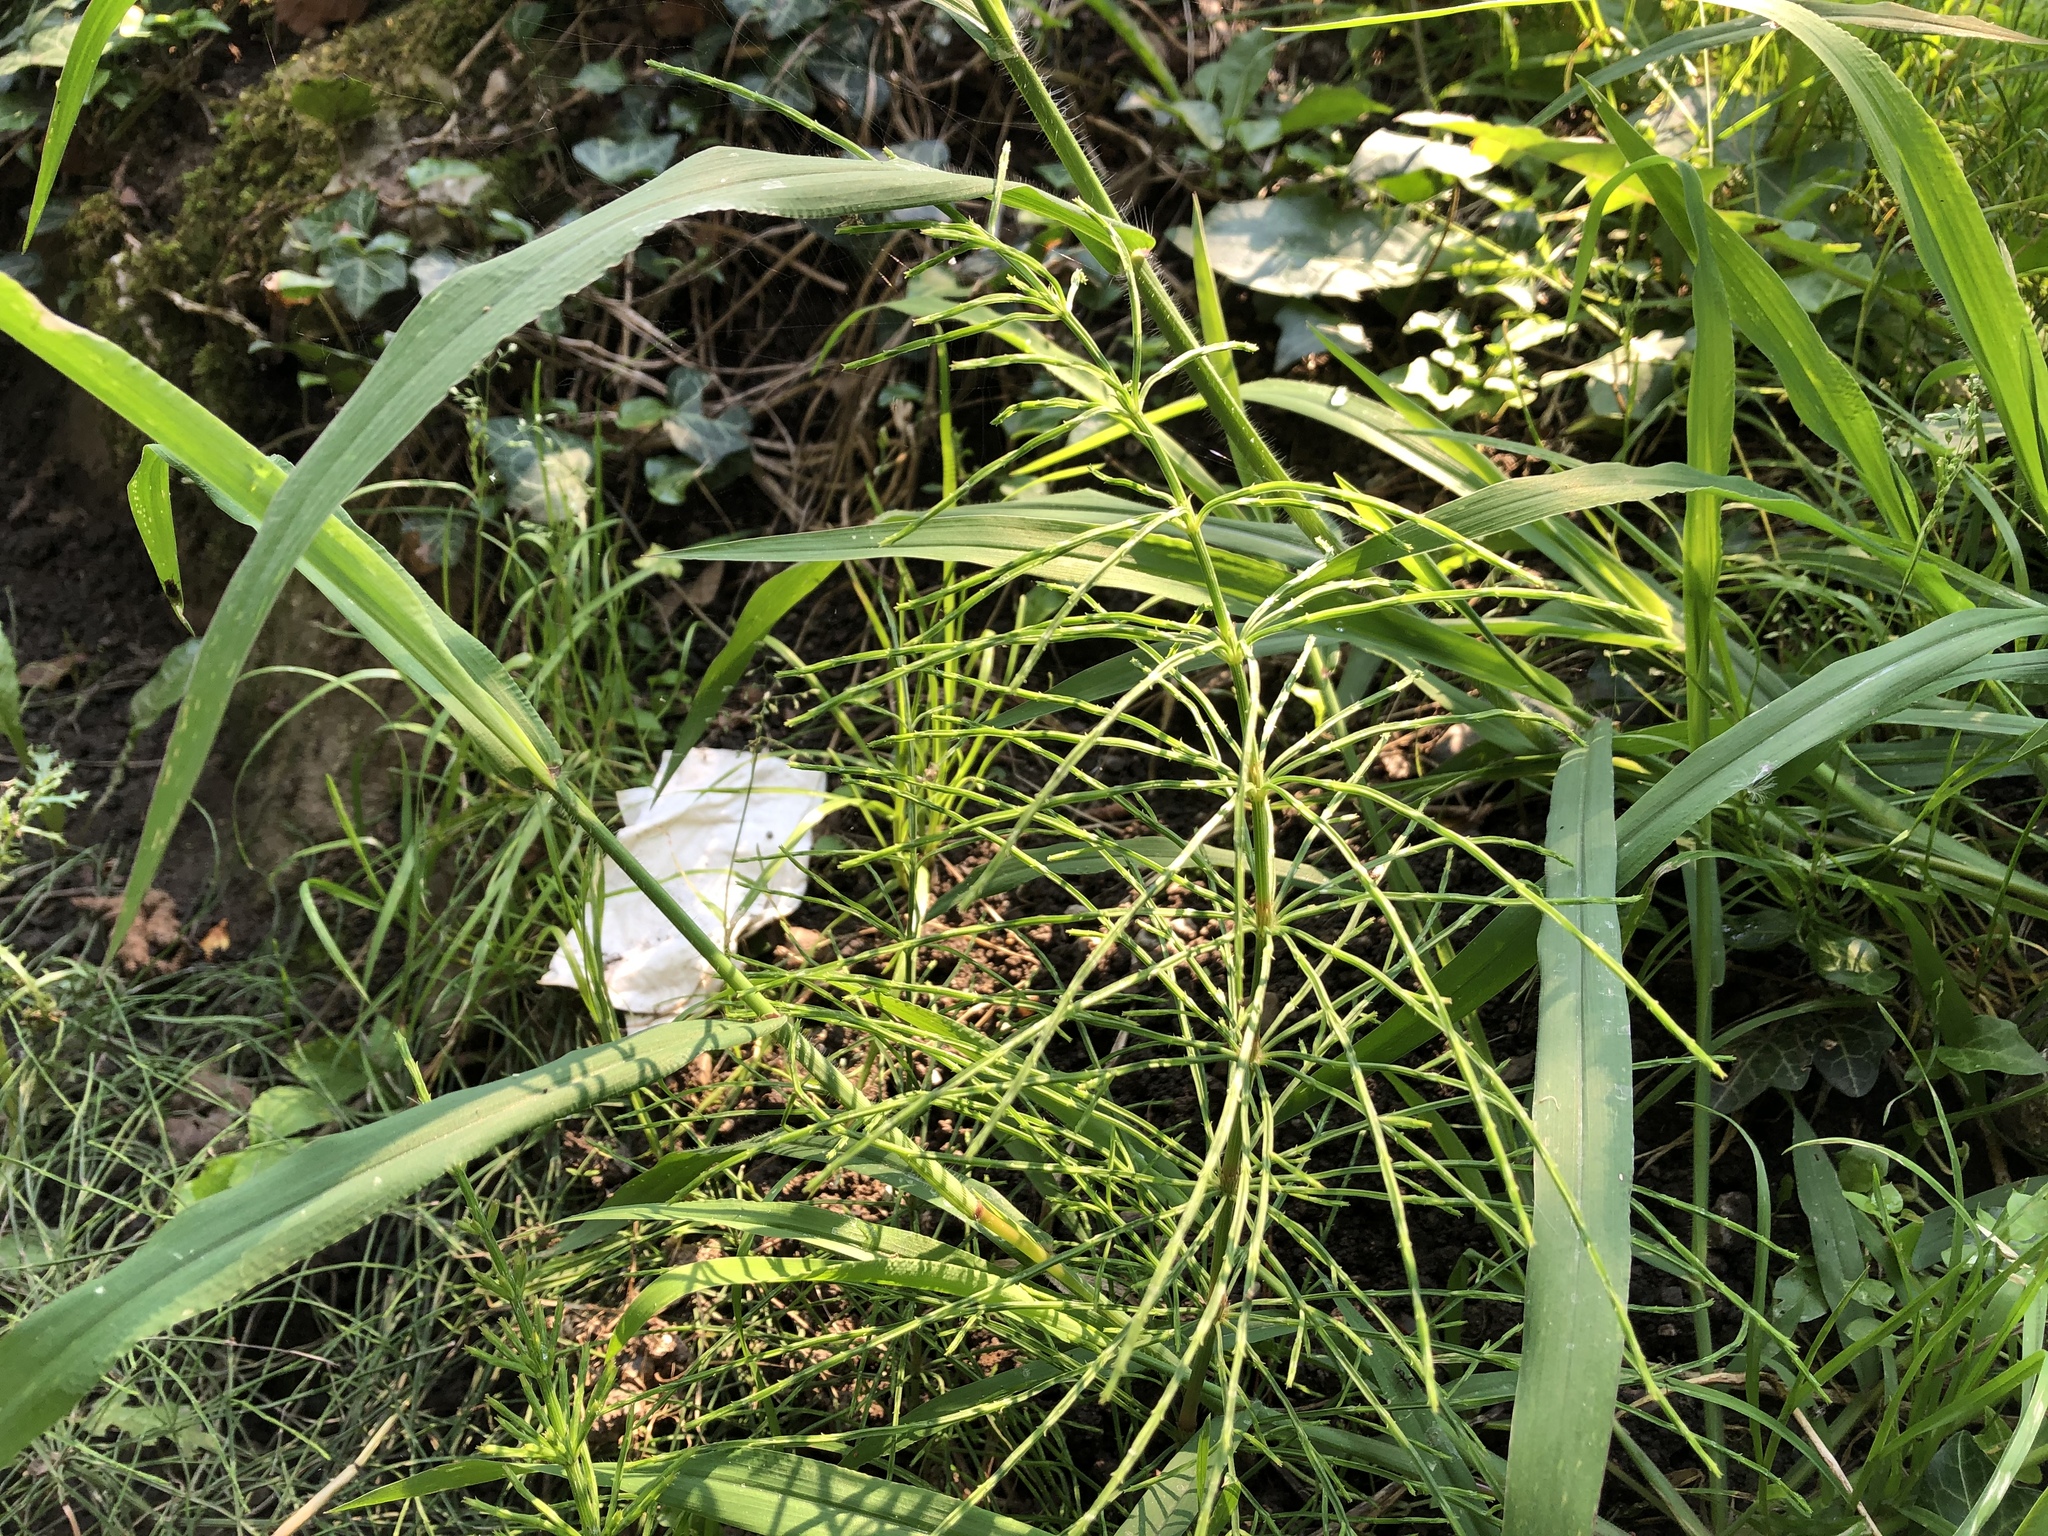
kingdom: Plantae
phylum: Tracheophyta
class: Polypodiopsida
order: Equisetales
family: Equisetaceae
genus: Equisetum
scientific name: Equisetum arvense
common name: Field horsetail
